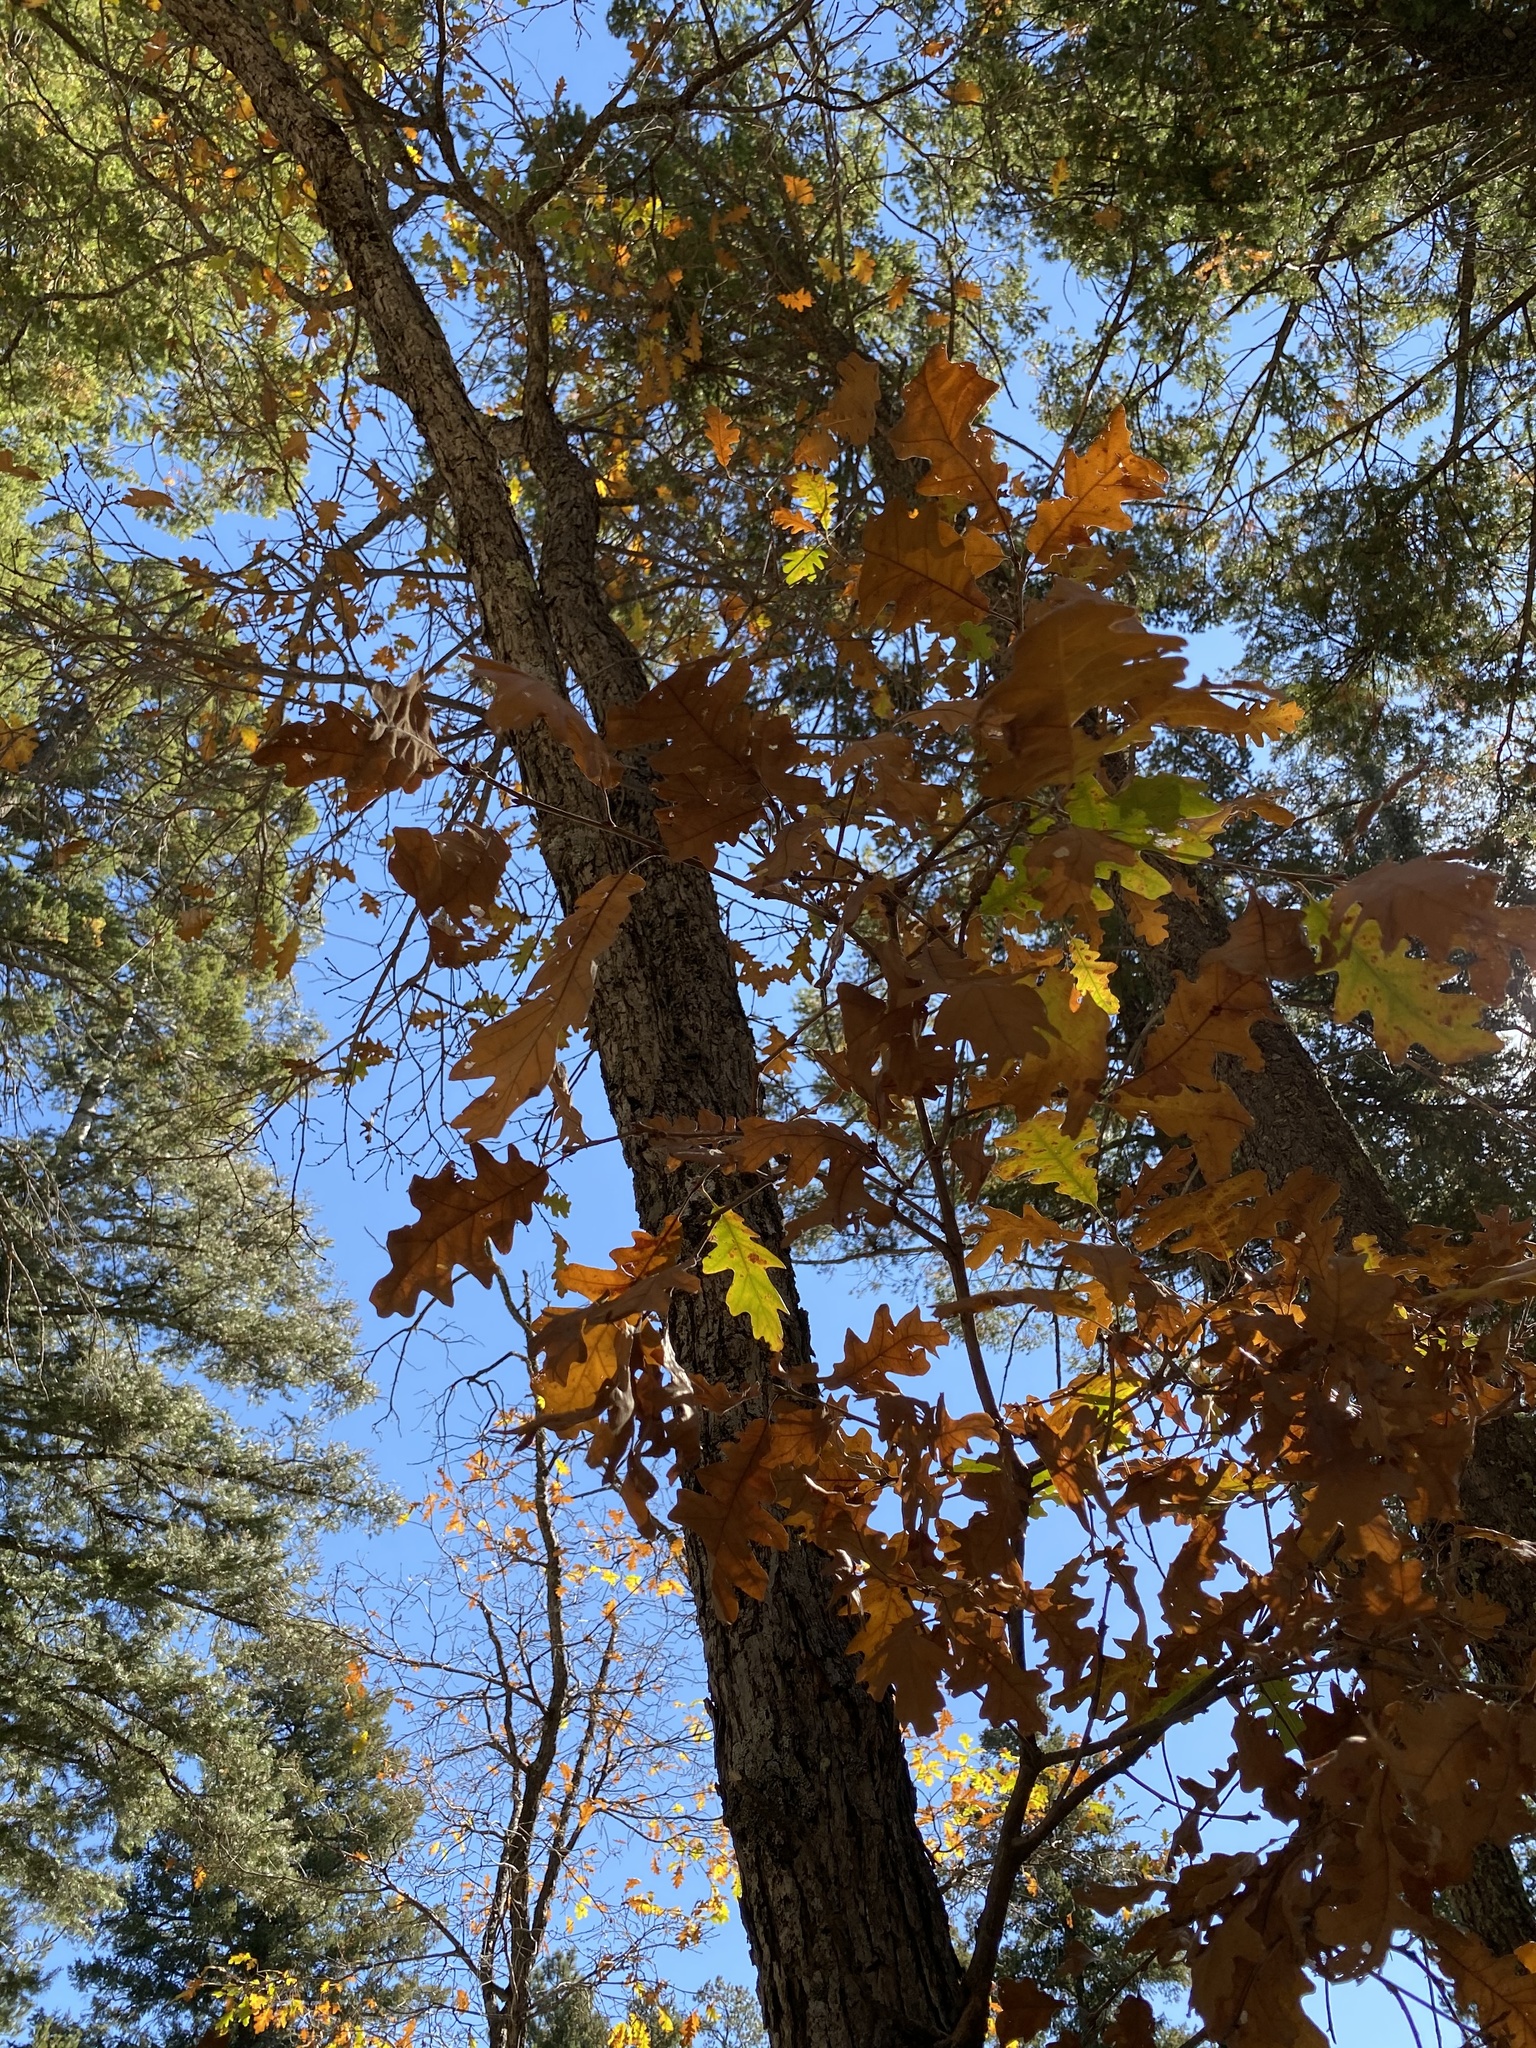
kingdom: Plantae
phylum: Tracheophyta
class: Magnoliopsida
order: Fagales
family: Fagaceae
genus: Quercus
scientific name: Quercus gambelii
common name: Gambel oak
